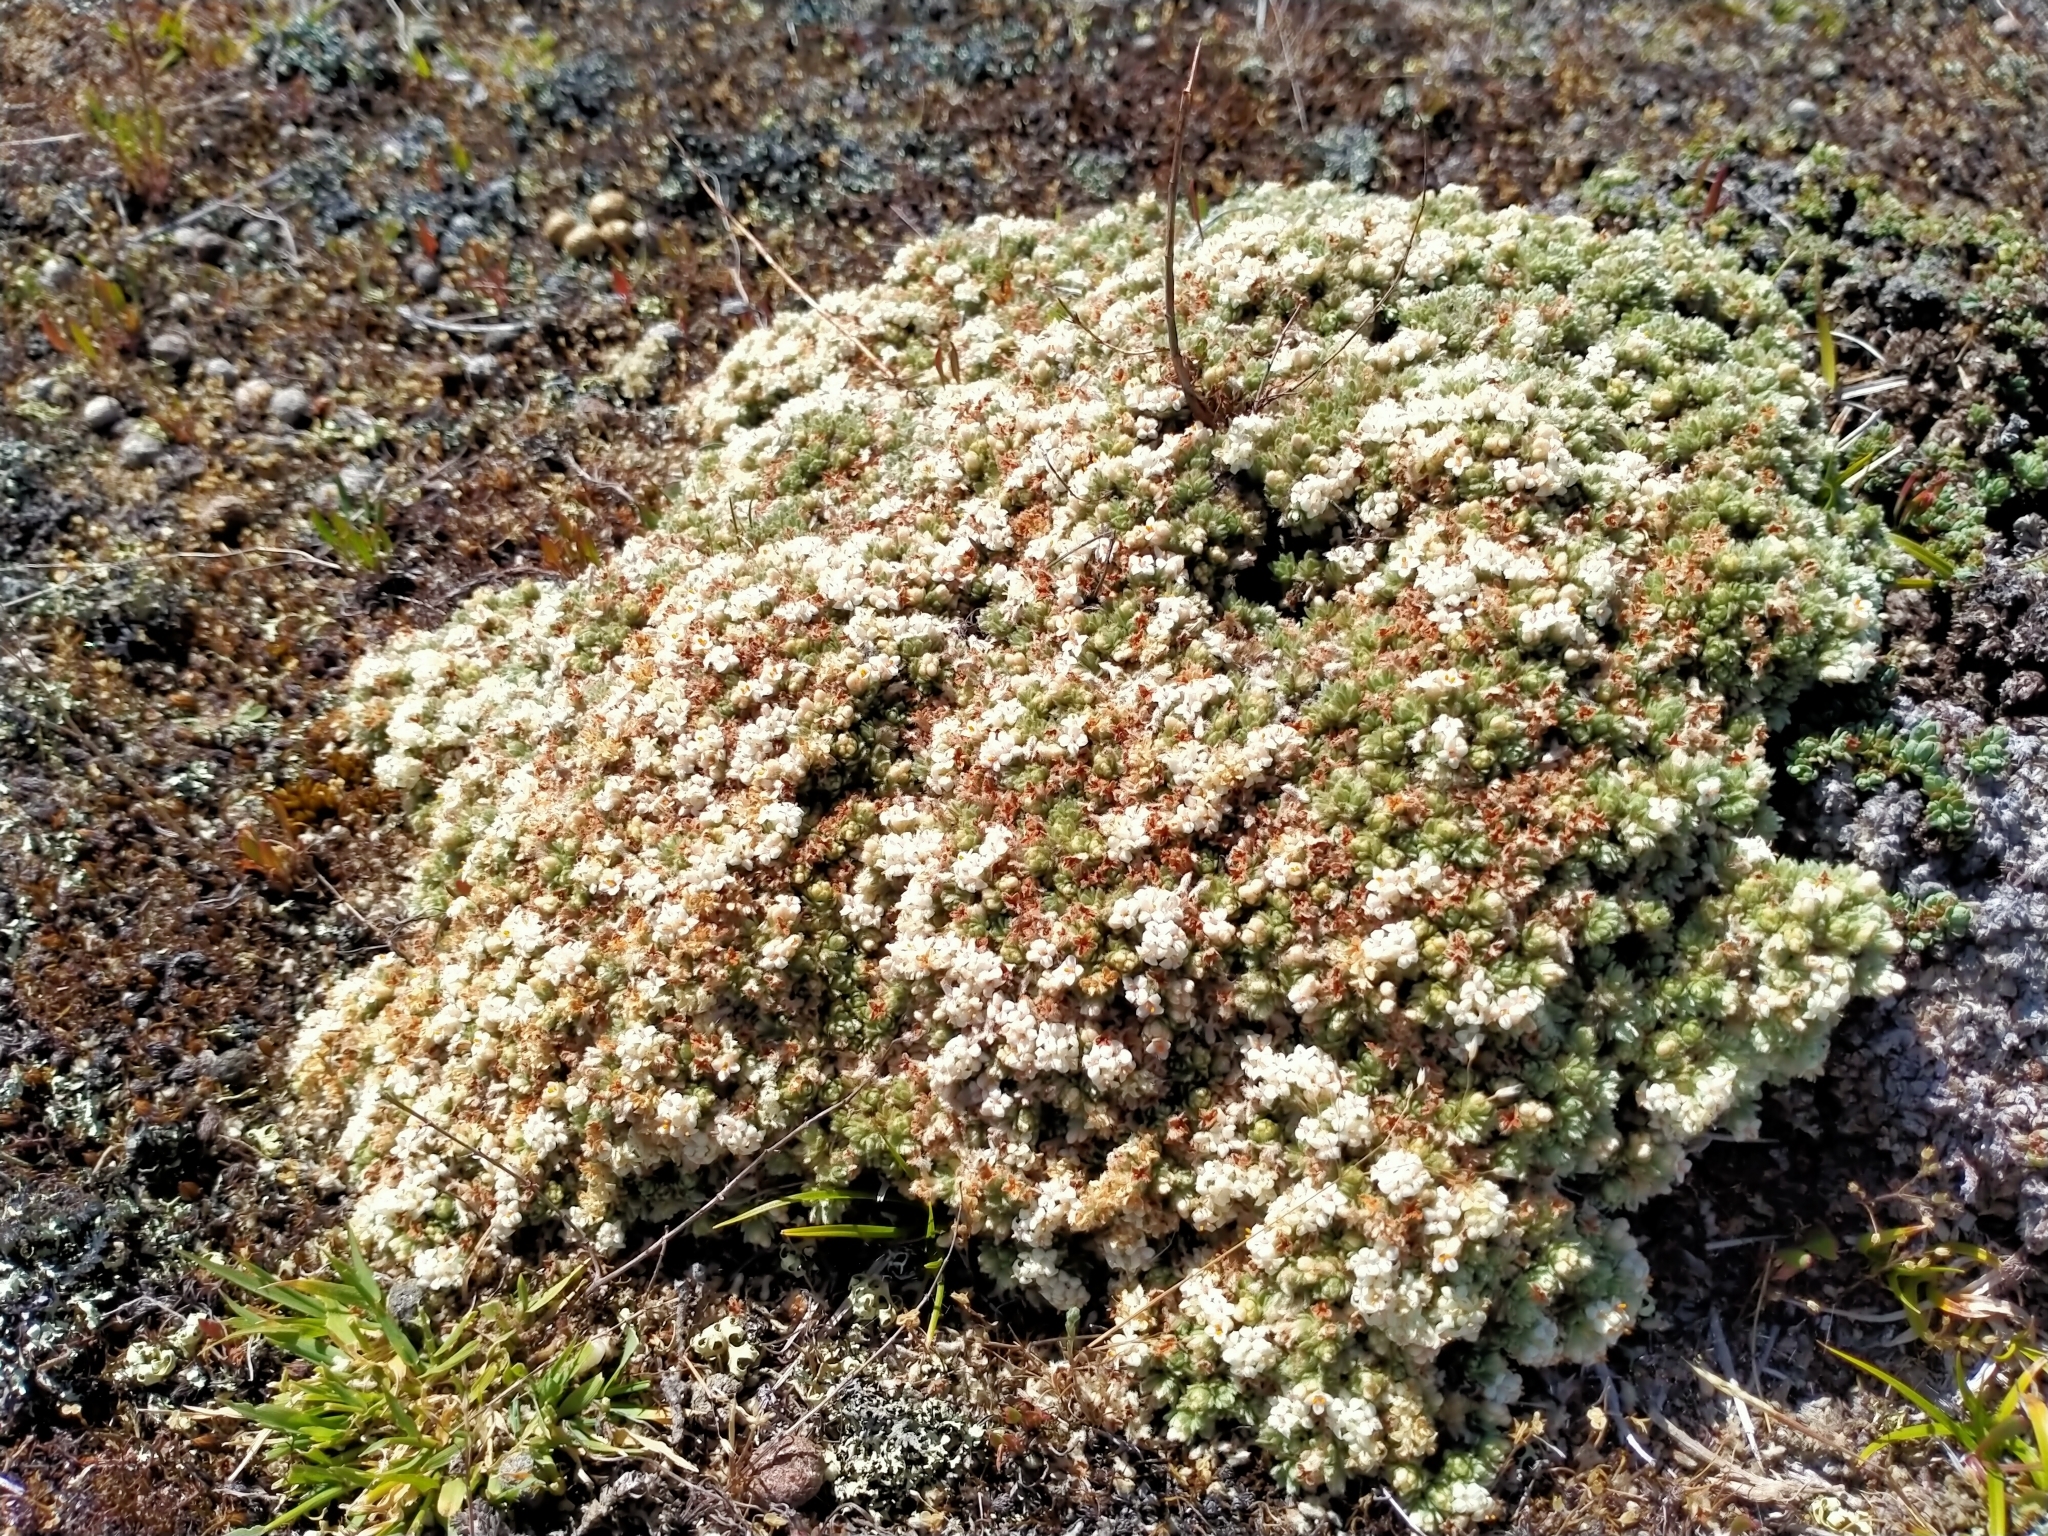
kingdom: Plantae
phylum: Tracheophyta
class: Magnoliopsida
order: Malvales
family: Thymelaeaceae
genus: Pimelea
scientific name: Pimelea sericeovillosa
